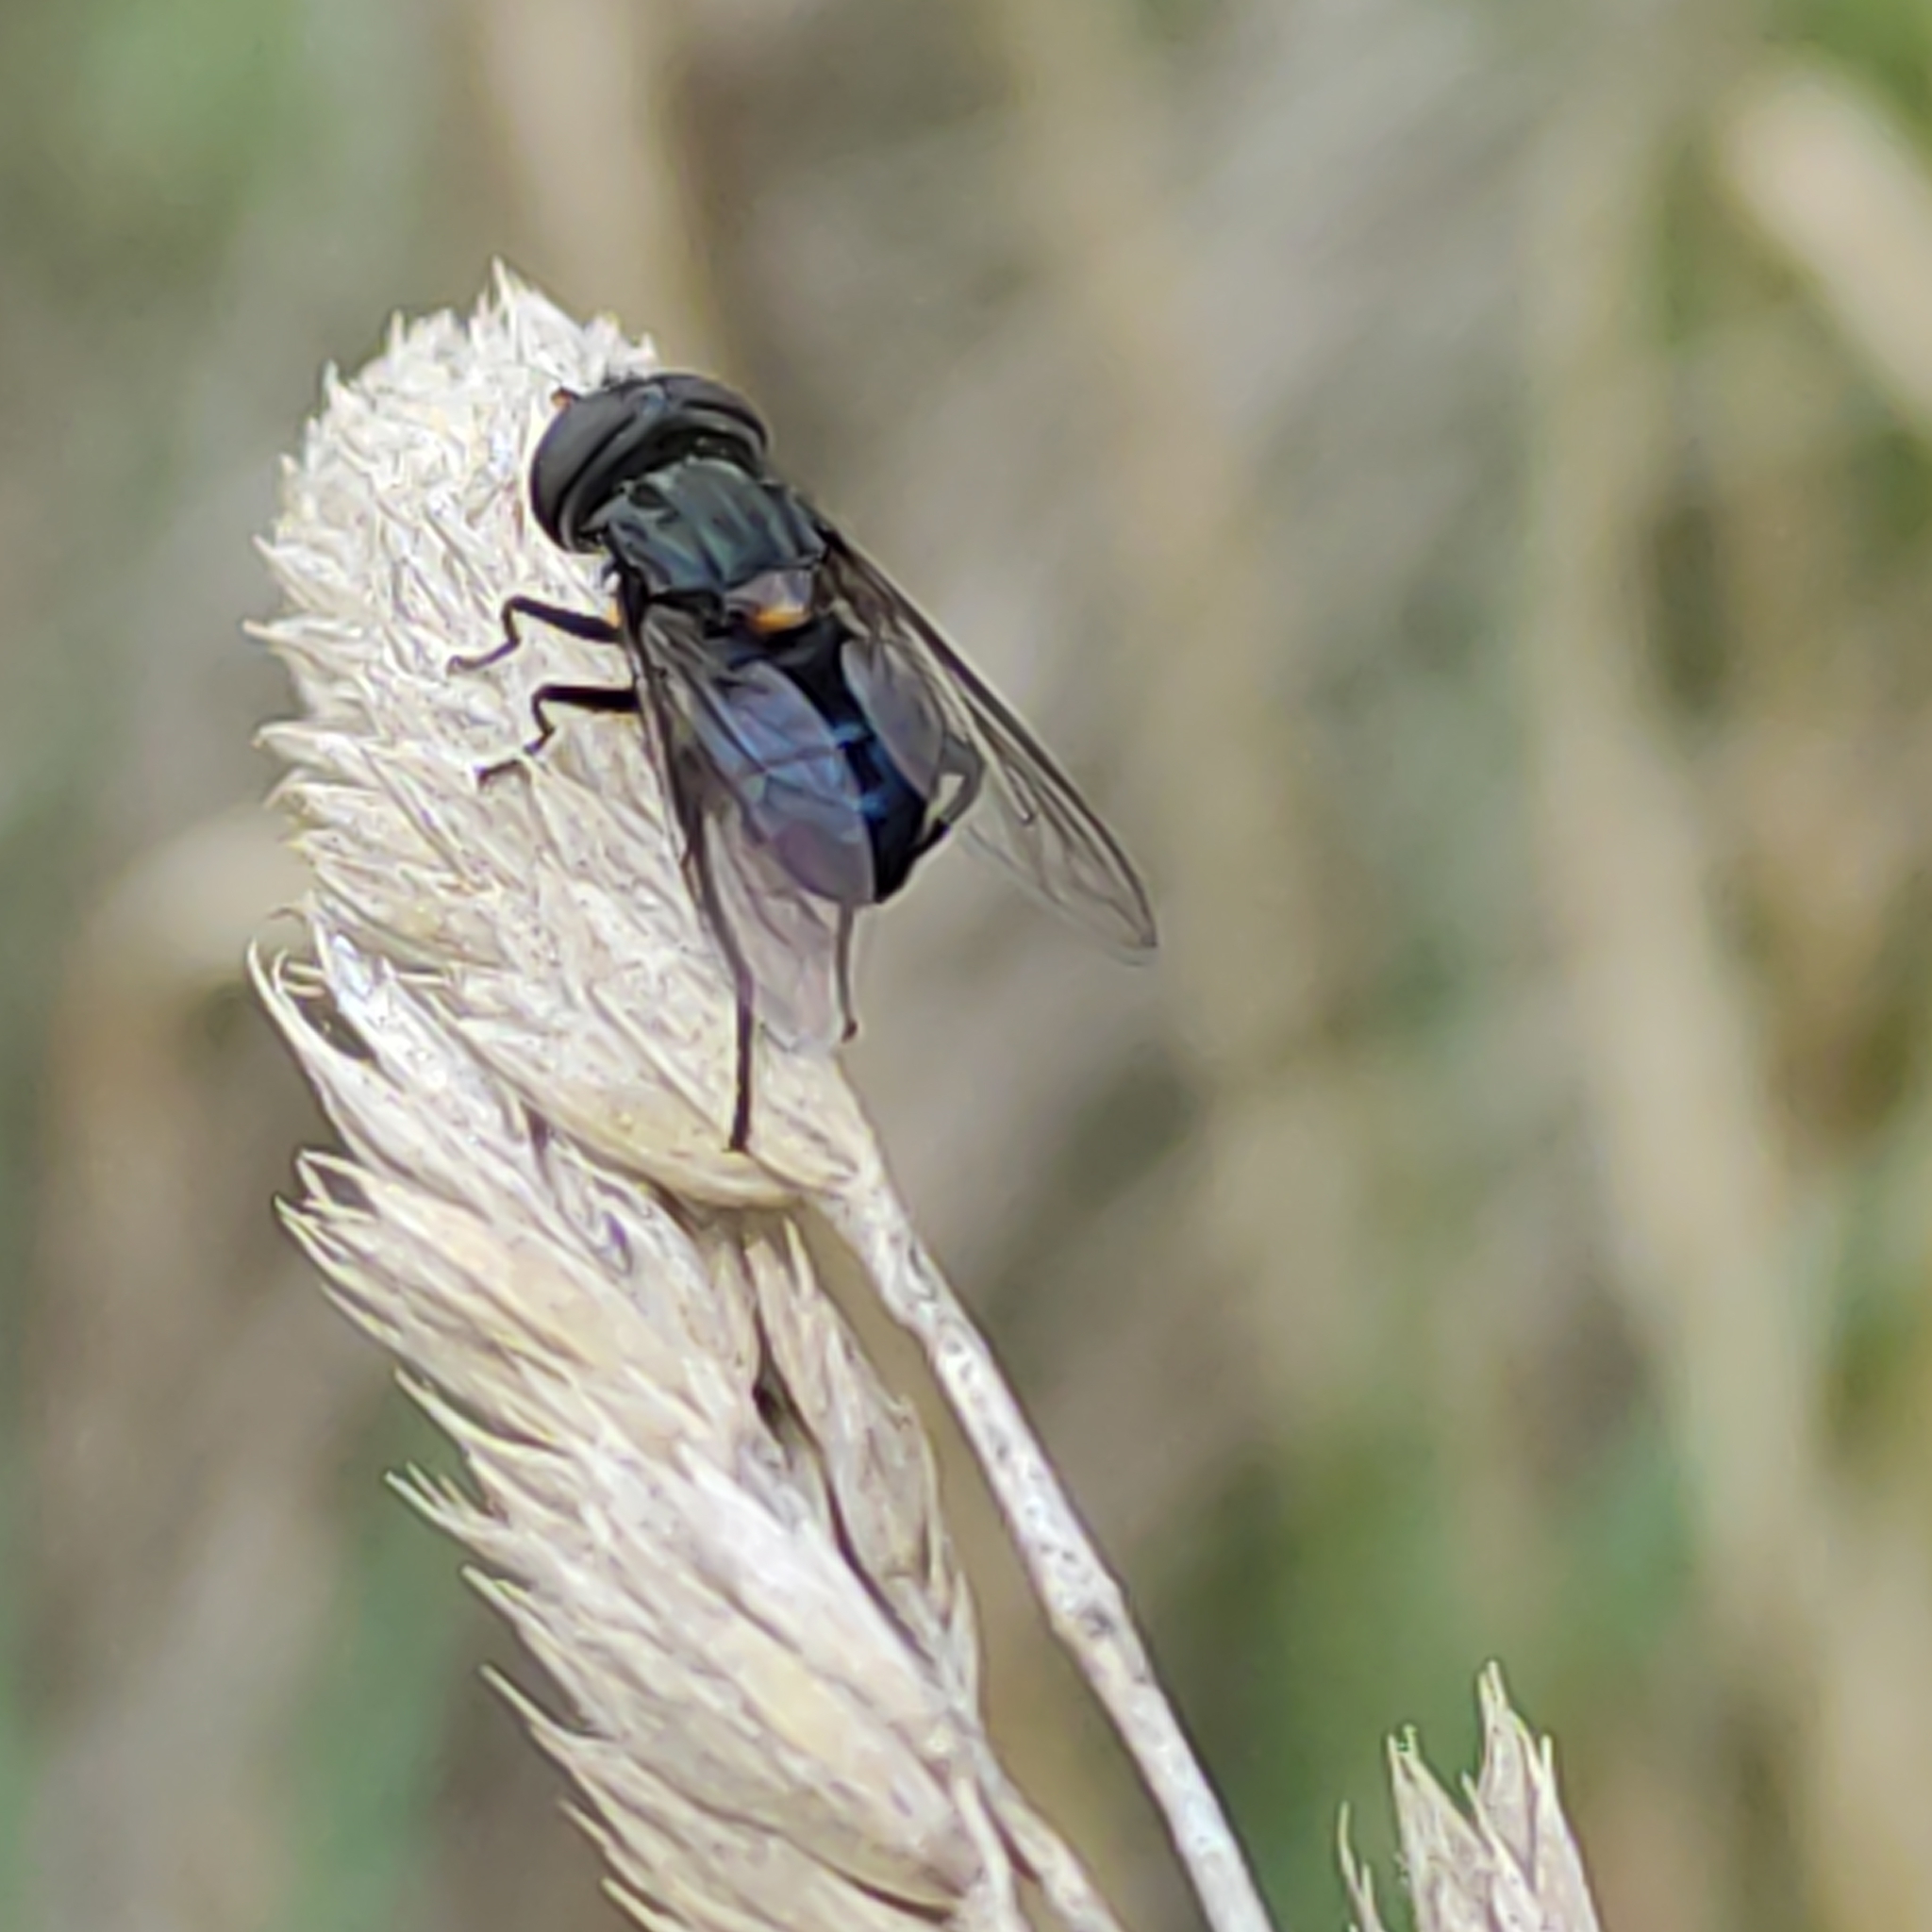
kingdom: Animalia
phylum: Arthropoda
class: Insecta
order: Diptera
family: Syrphidae
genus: Helophilus
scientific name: Helophilus hochstetteri
